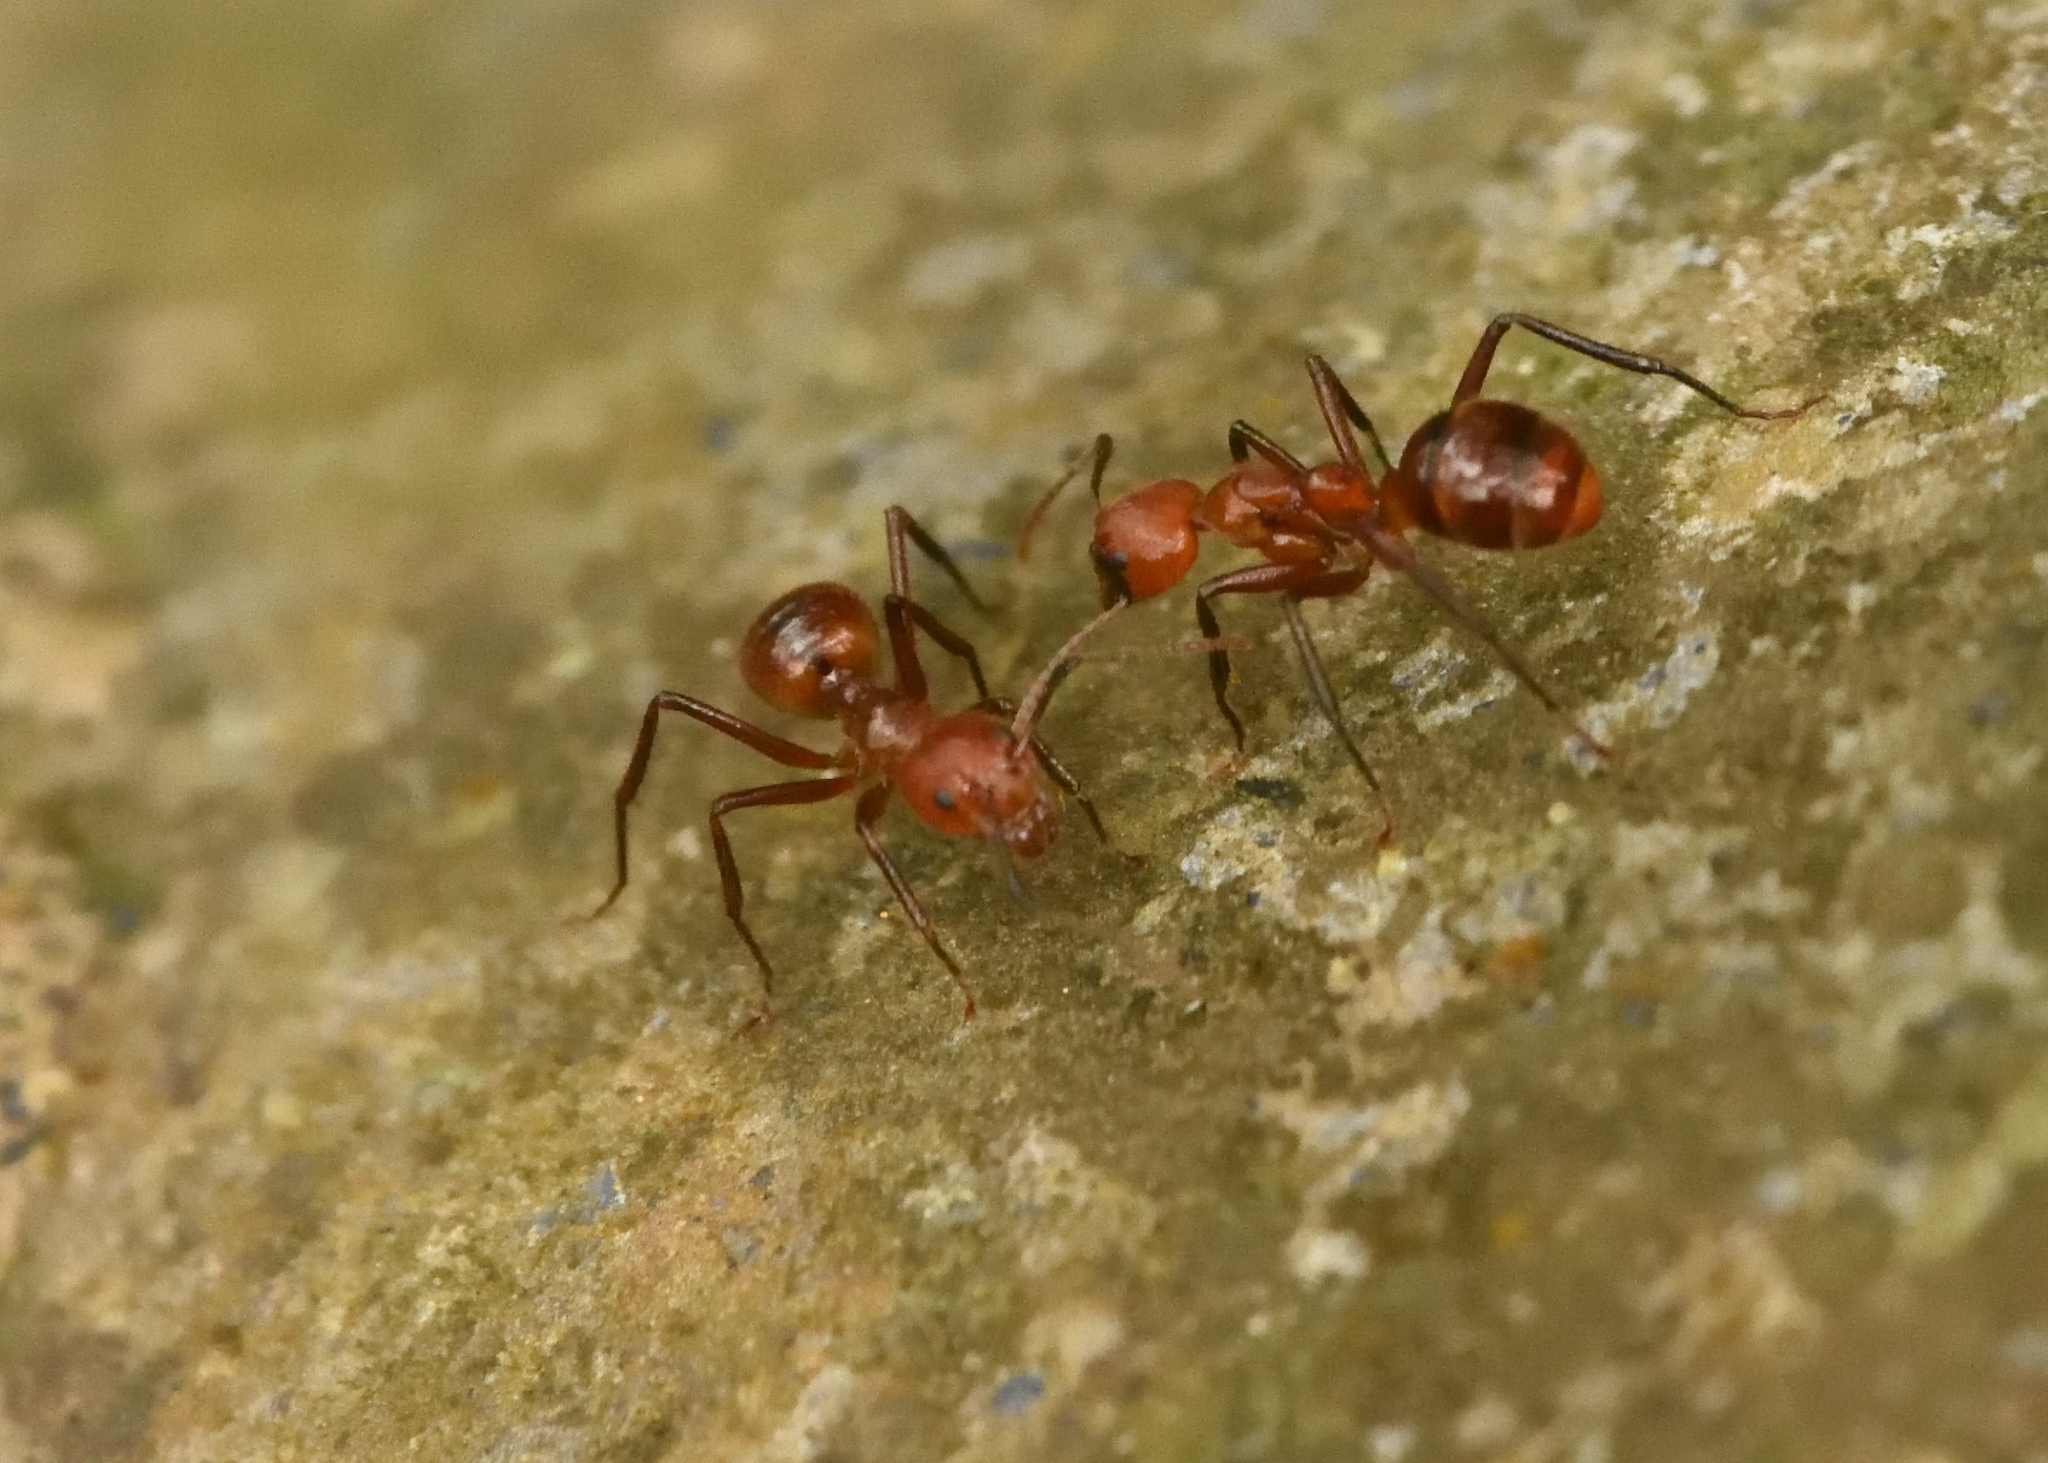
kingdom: Animalia
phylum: Arthropoda
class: Insecta
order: Hymenoptera
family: Formicidae
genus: Dolichoderus
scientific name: Dolichoderus abruptus
